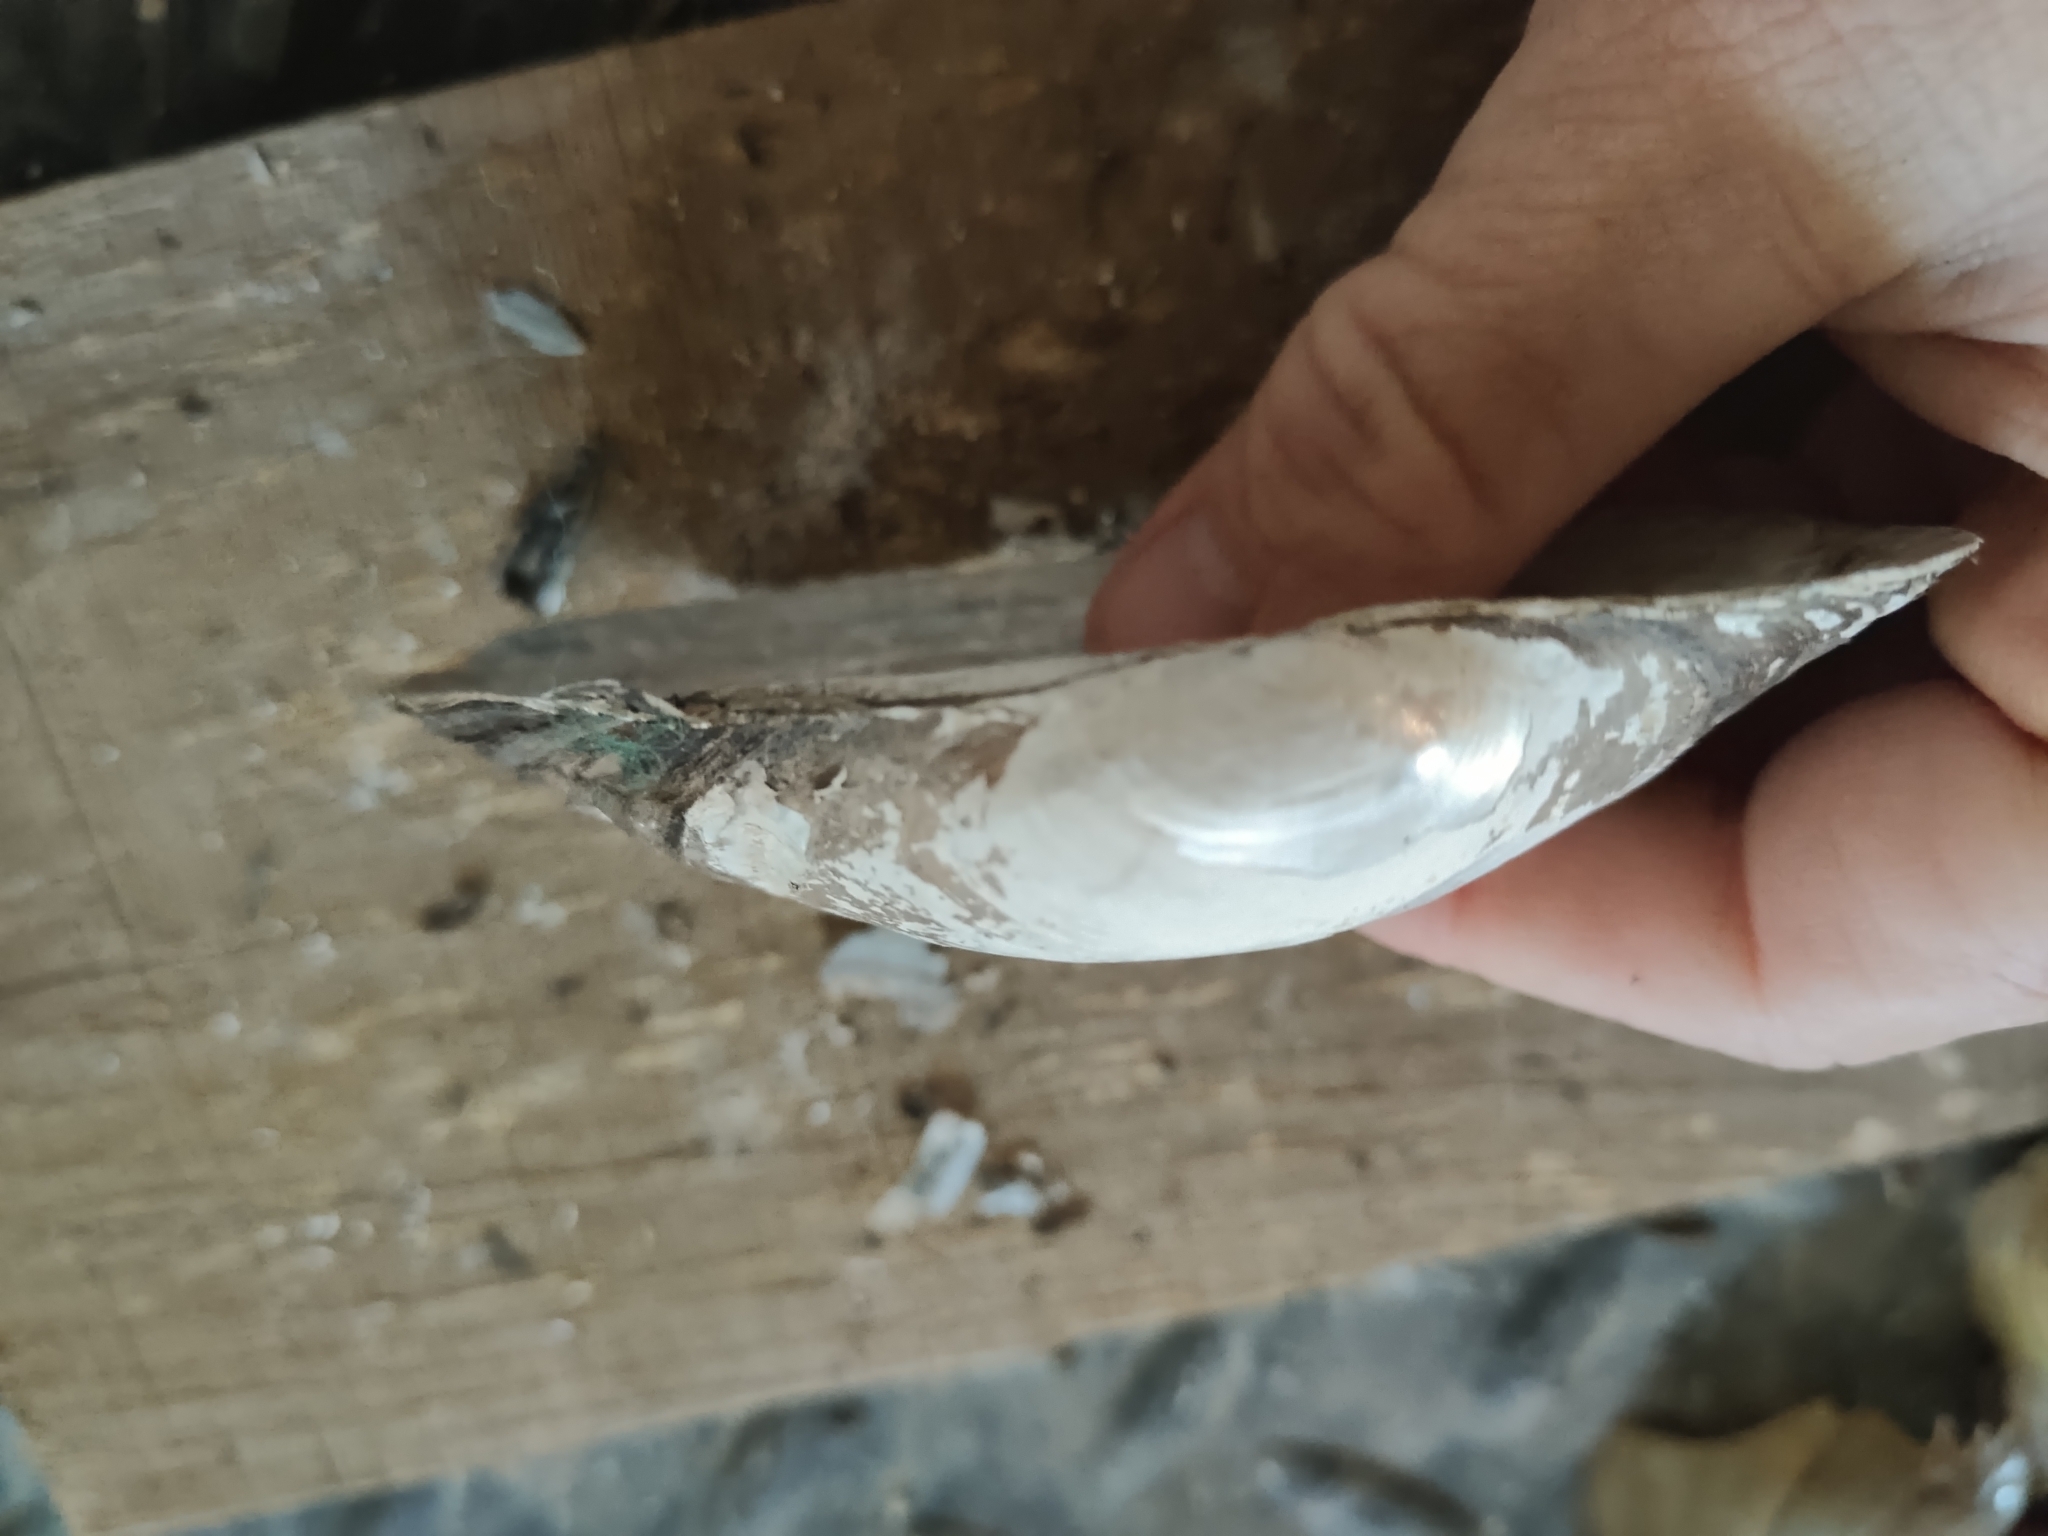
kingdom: Animalia
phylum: Mollusca
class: Bivalvia
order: Unionida
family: Unionidae
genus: Pyganodon
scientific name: Pyganodon grandis
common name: Giant floater
